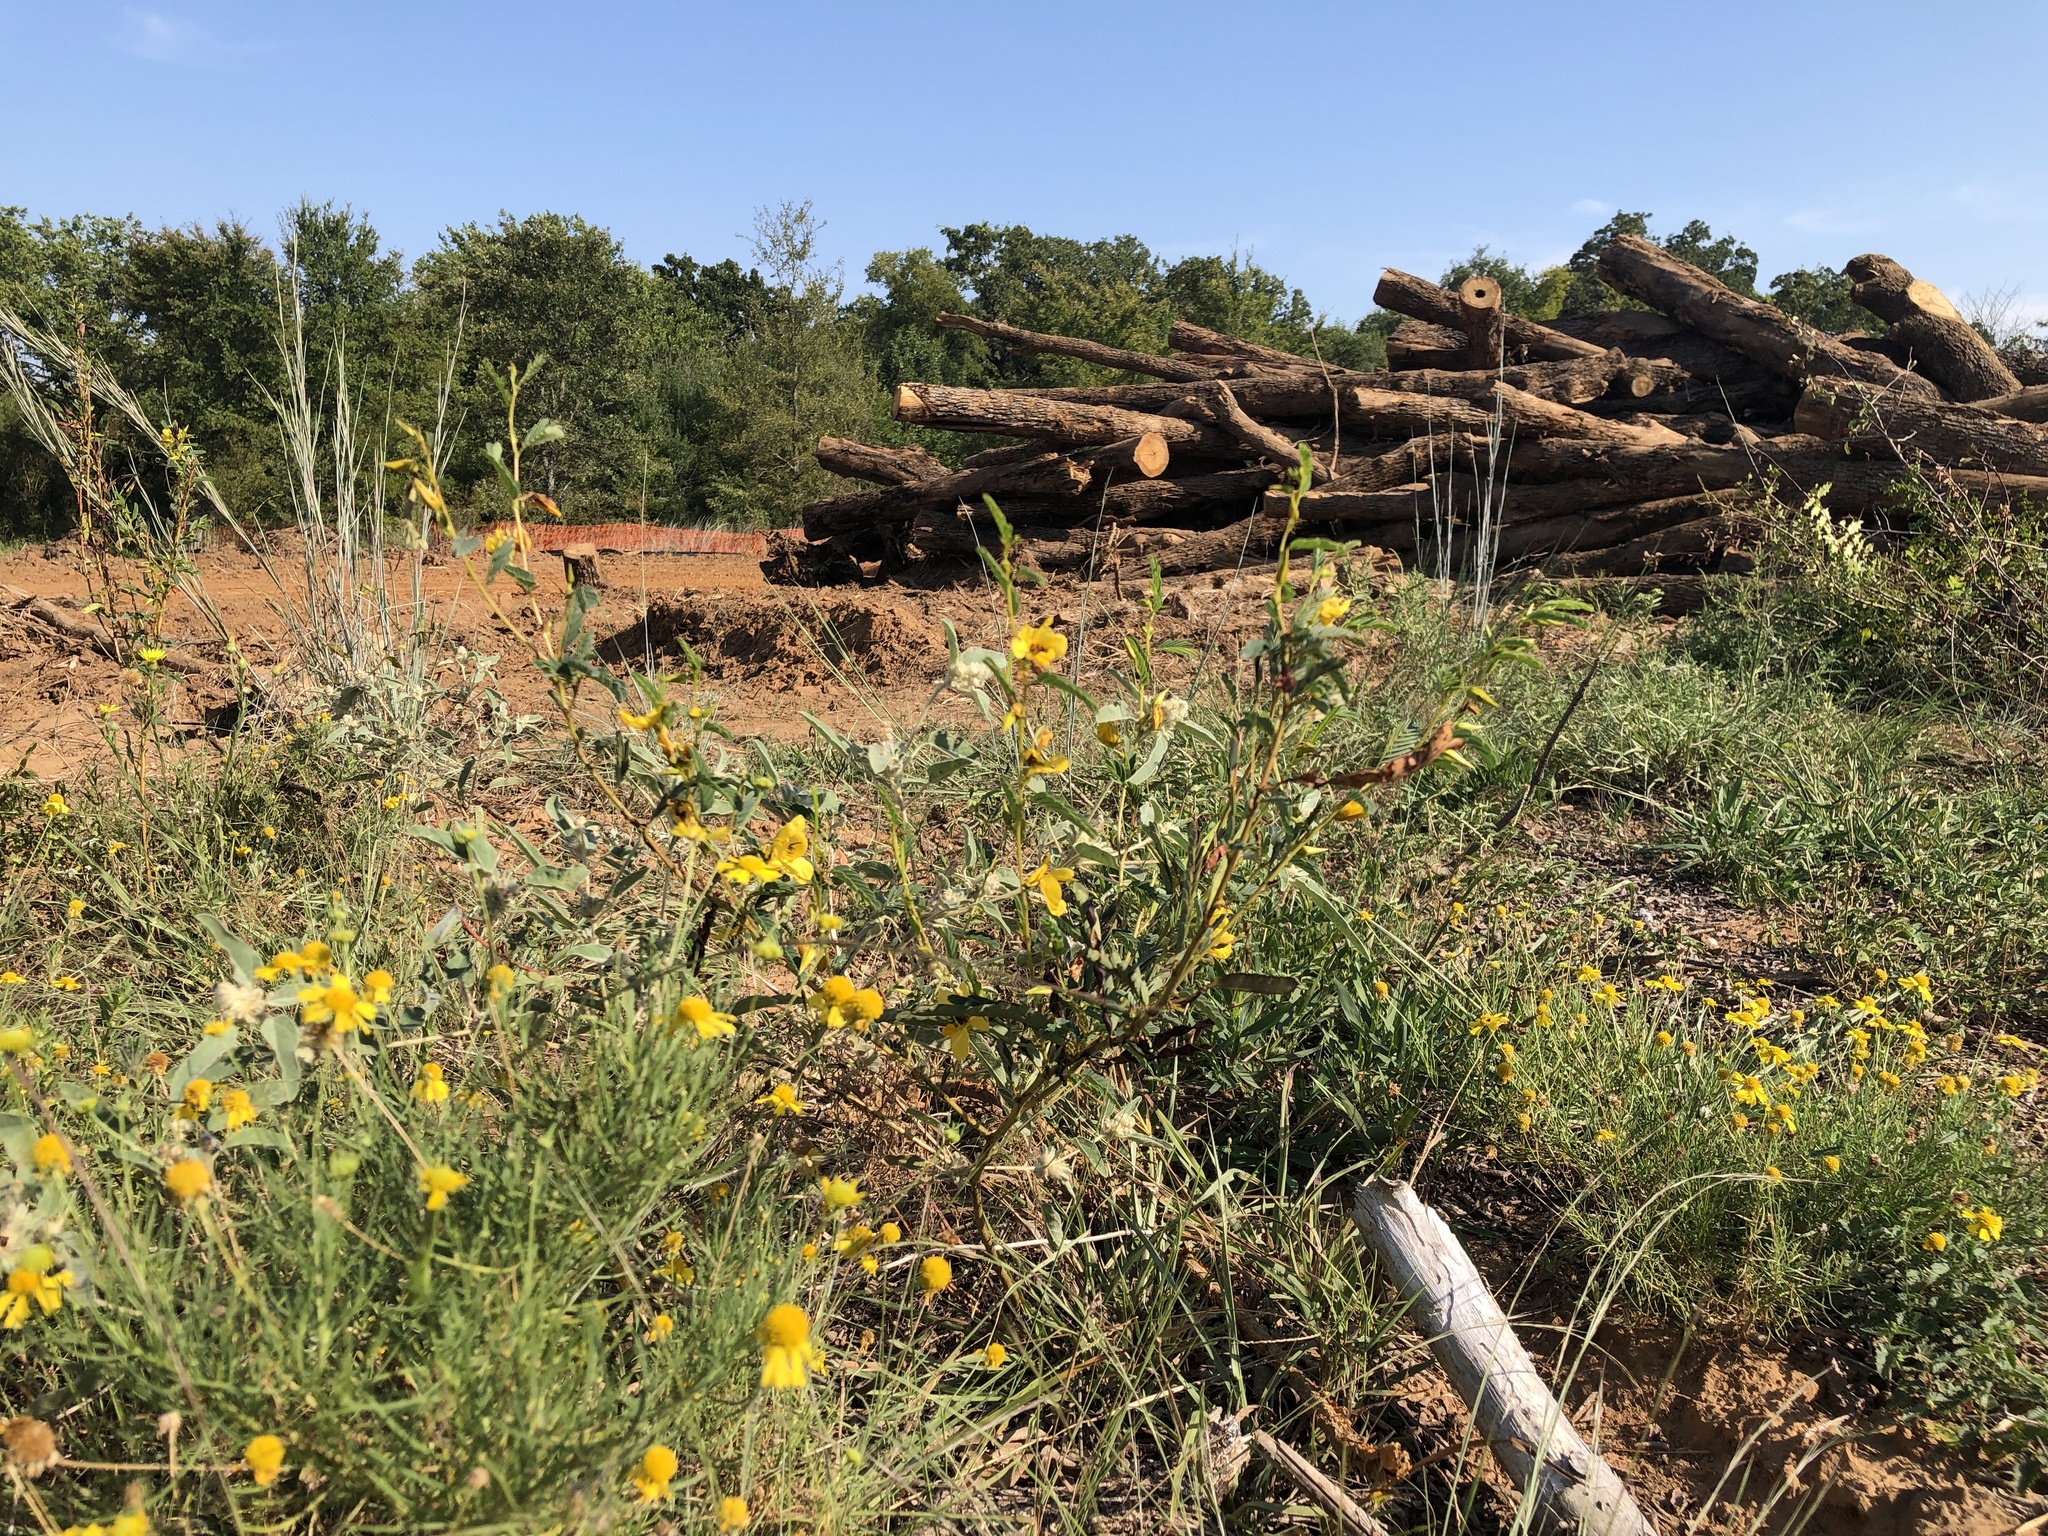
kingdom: Plantae
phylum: Tracheophyta
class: Magnoliopsida
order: Fabales
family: Fabaceae
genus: Chamaecrista
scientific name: Chamaecrista fasciculata
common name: Golden cassia
